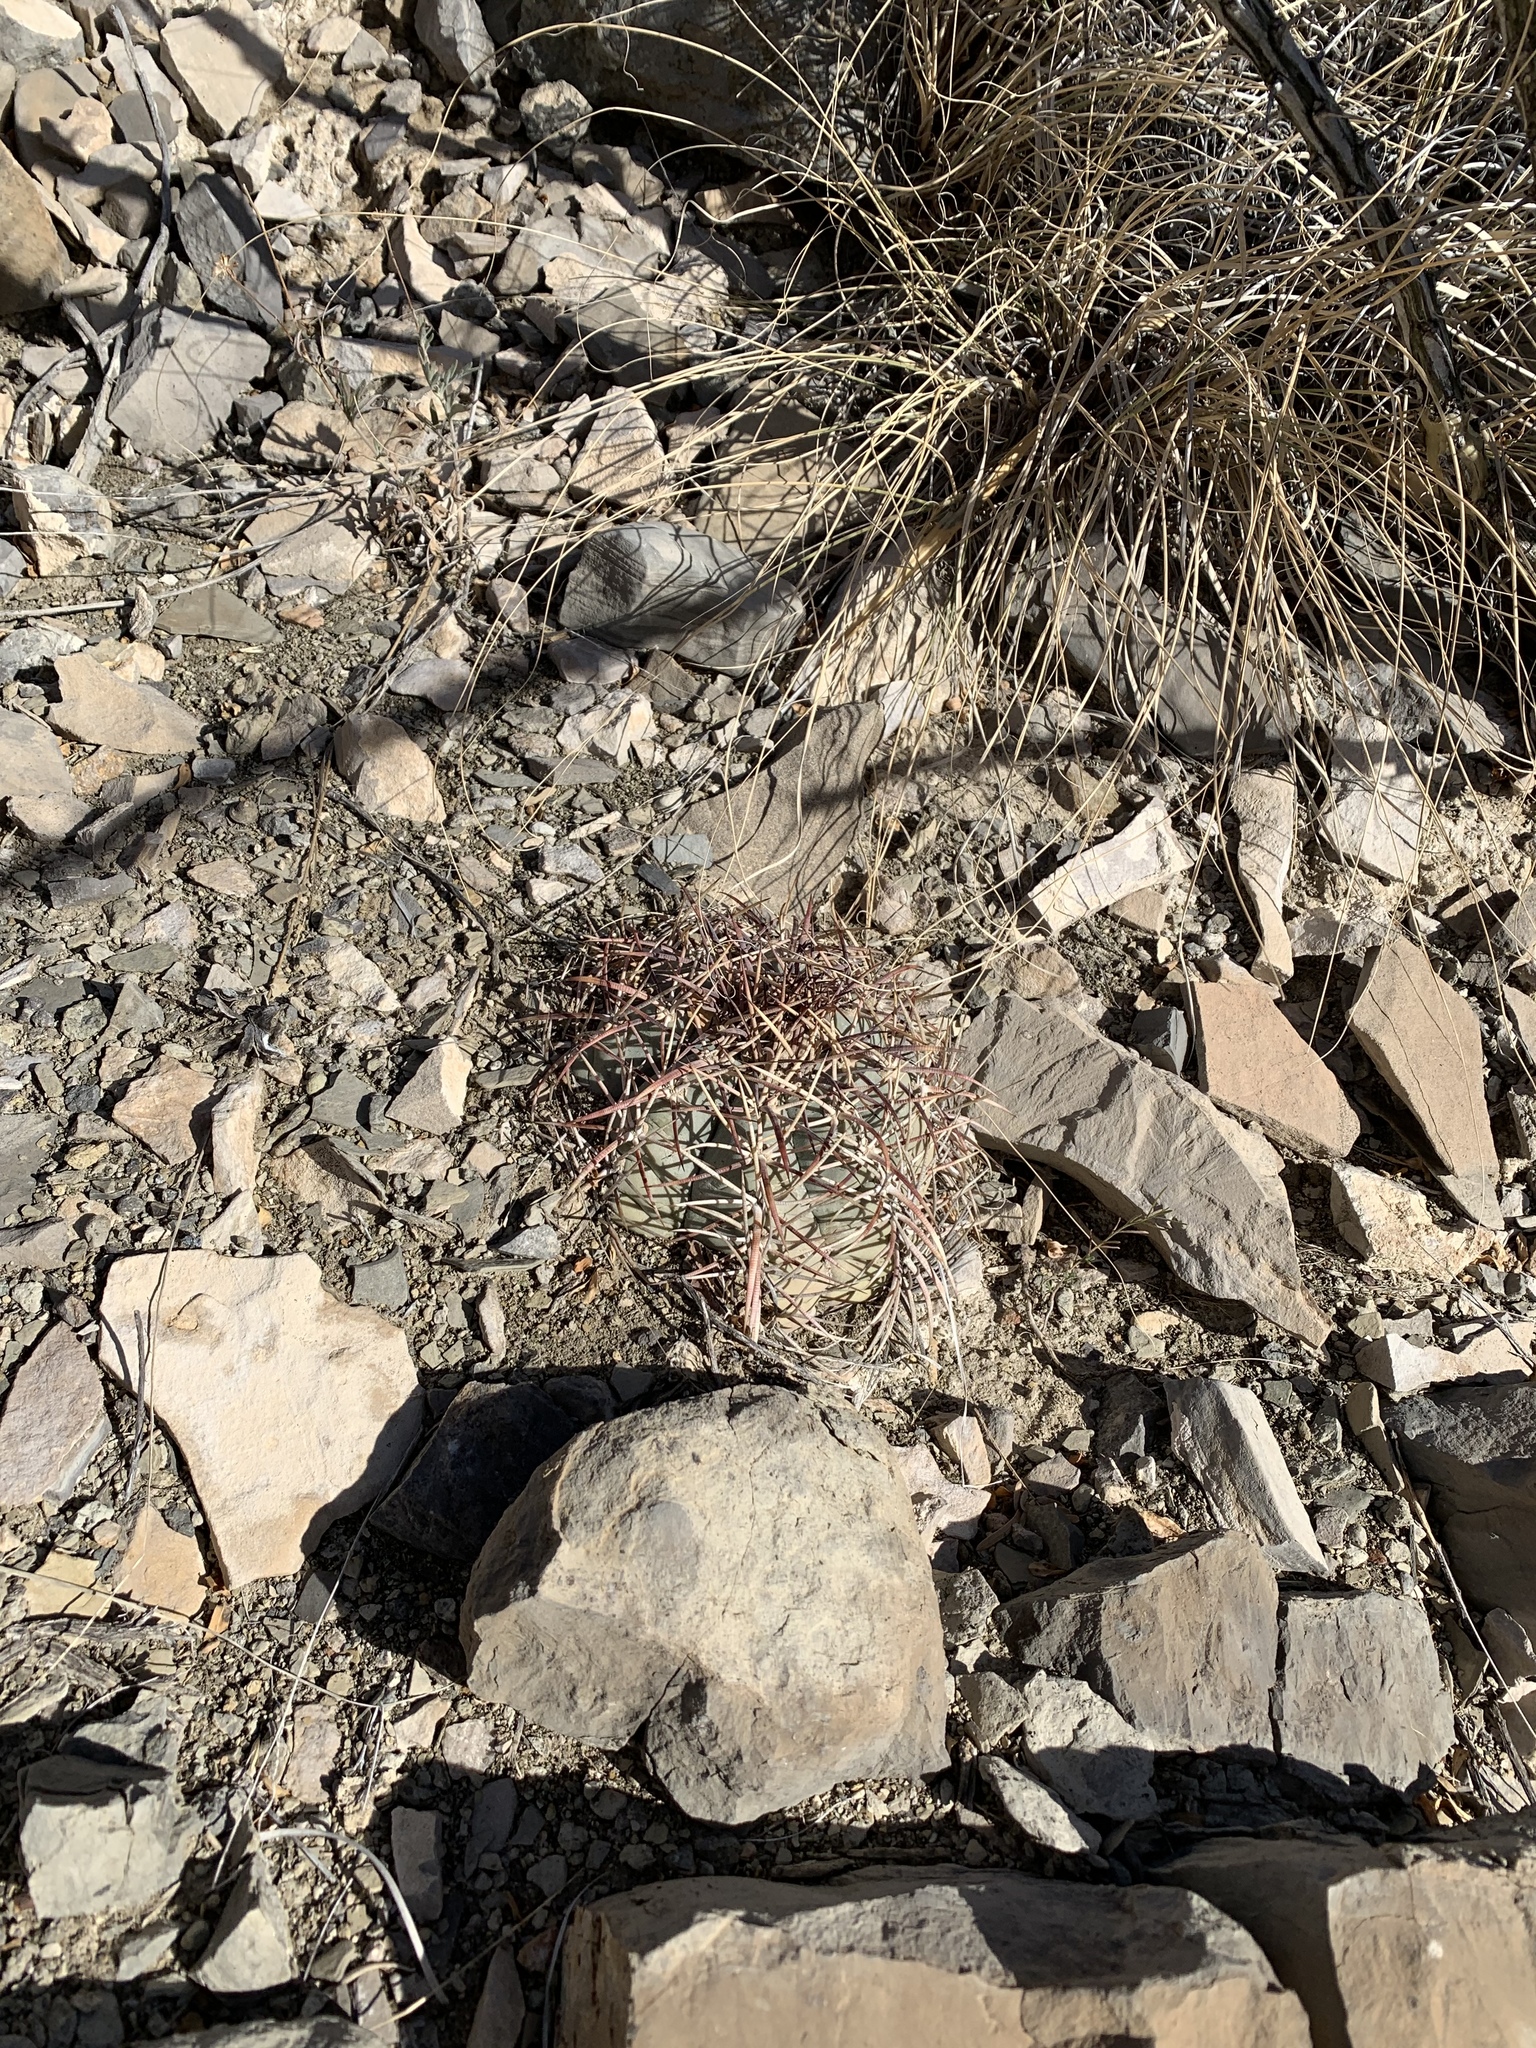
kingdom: Plantae
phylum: Tracheophyta
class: Magnoliopsida
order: Caryophyllales
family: Cactaceae
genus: Echinocactus
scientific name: Echinocactus horizonthalonius
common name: Devilshead
